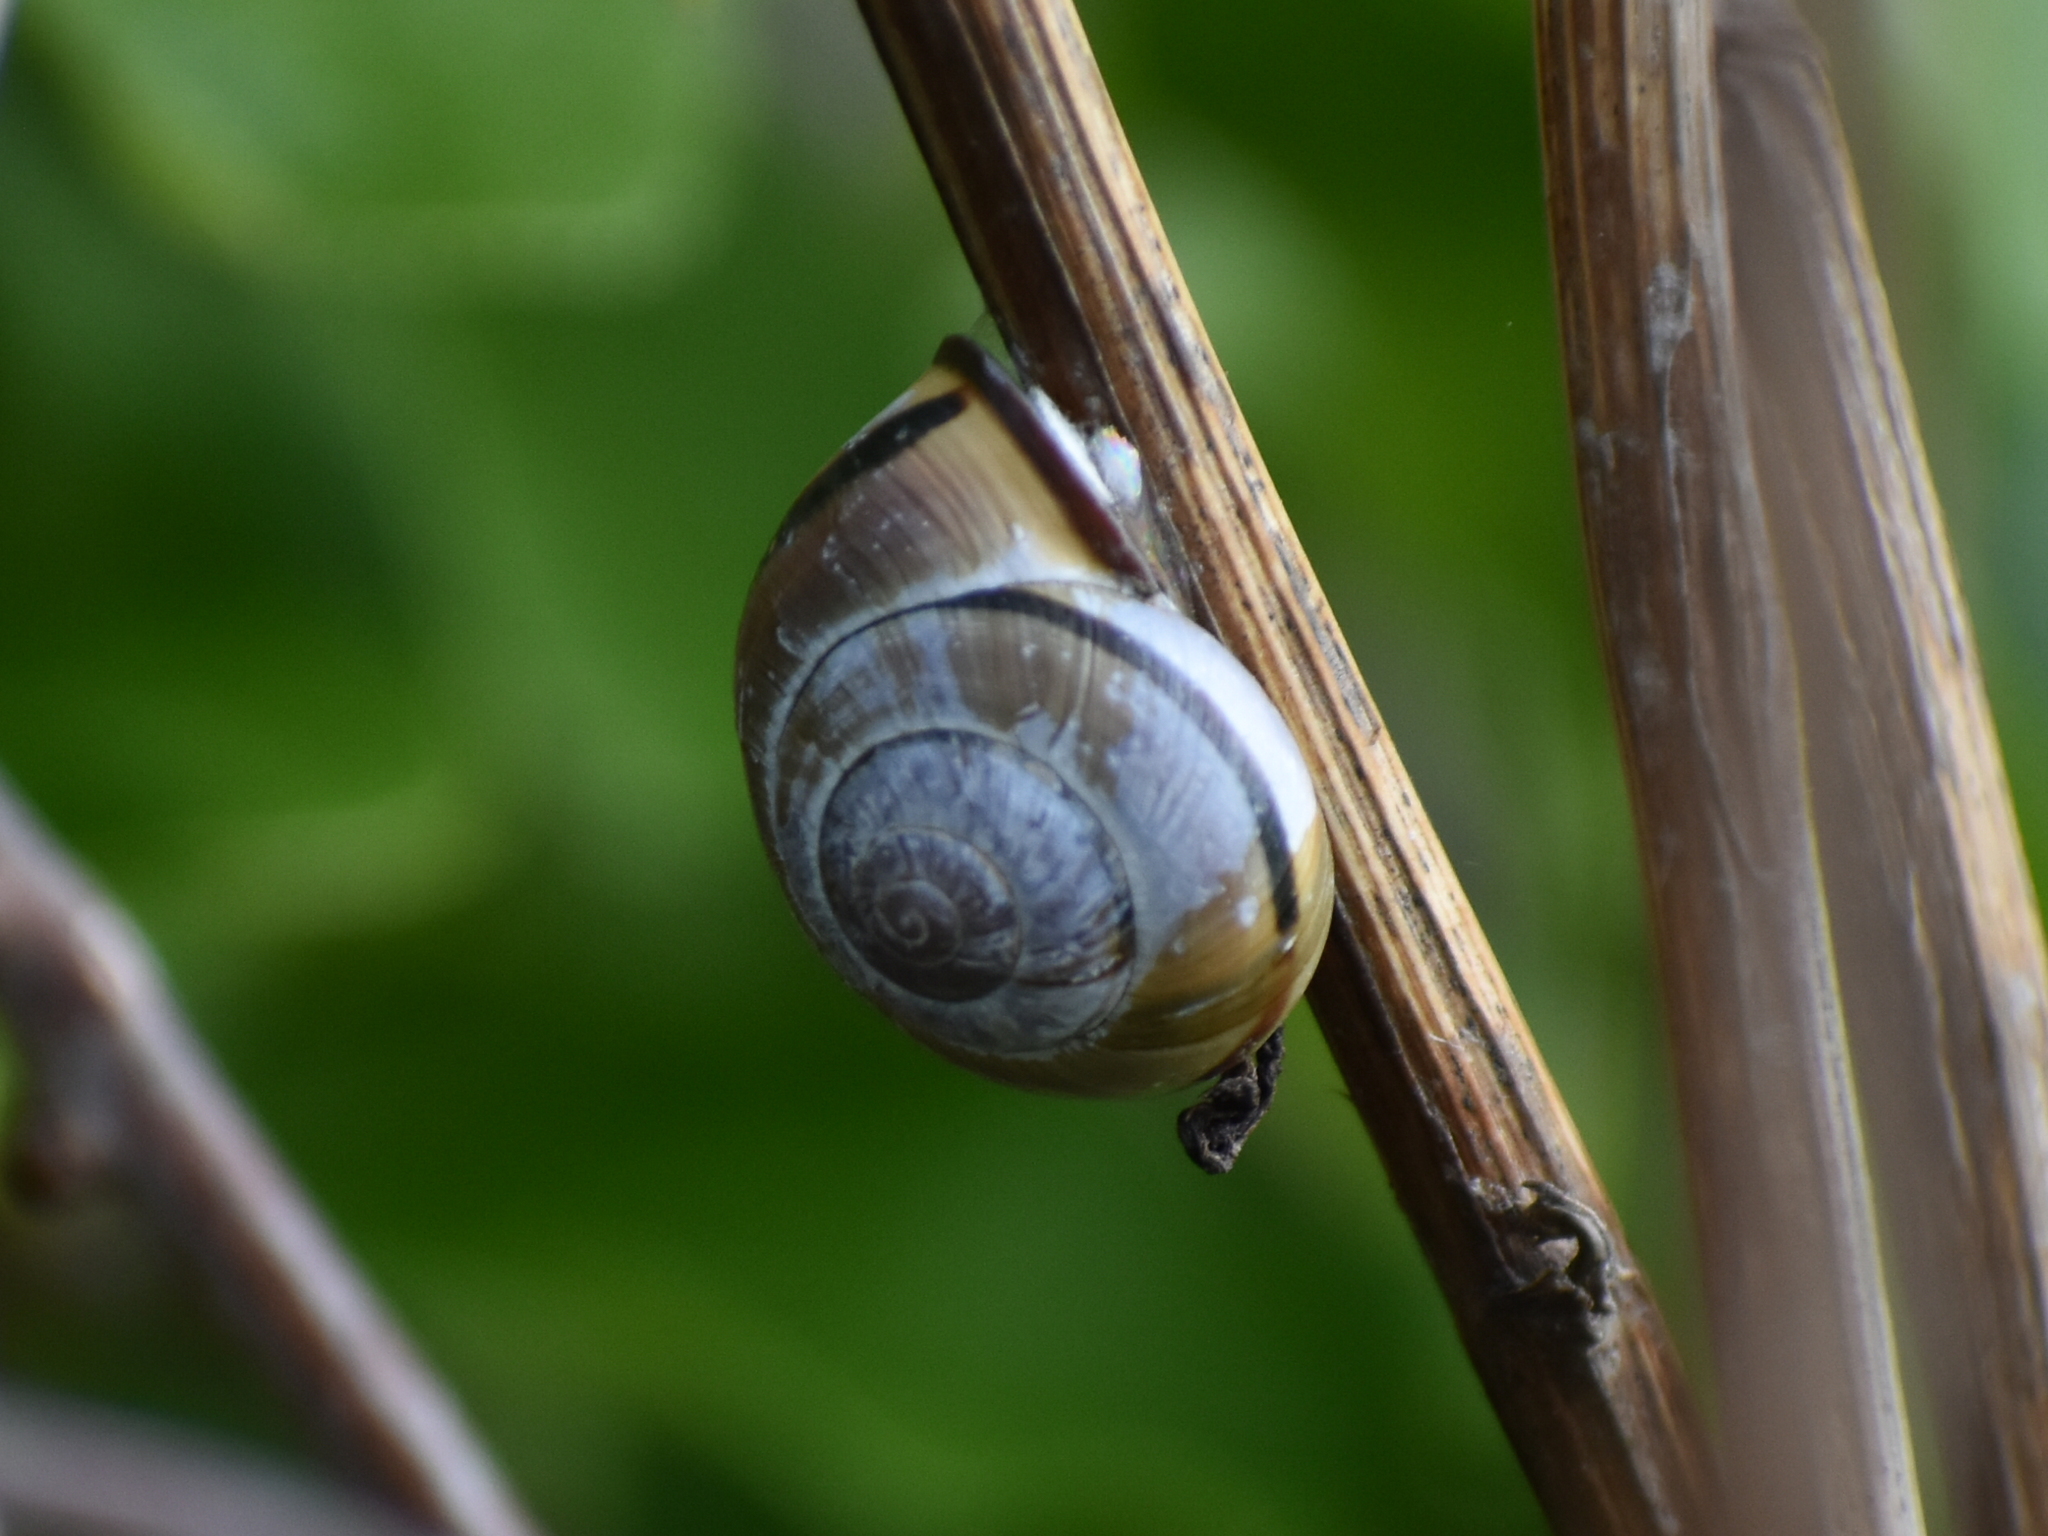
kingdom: Animalia
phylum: Mollusca
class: Gastropoda
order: Stylommatophora
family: Helicidae
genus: Cepaea
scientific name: Cepaea nemoralis
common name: Grovesnail
